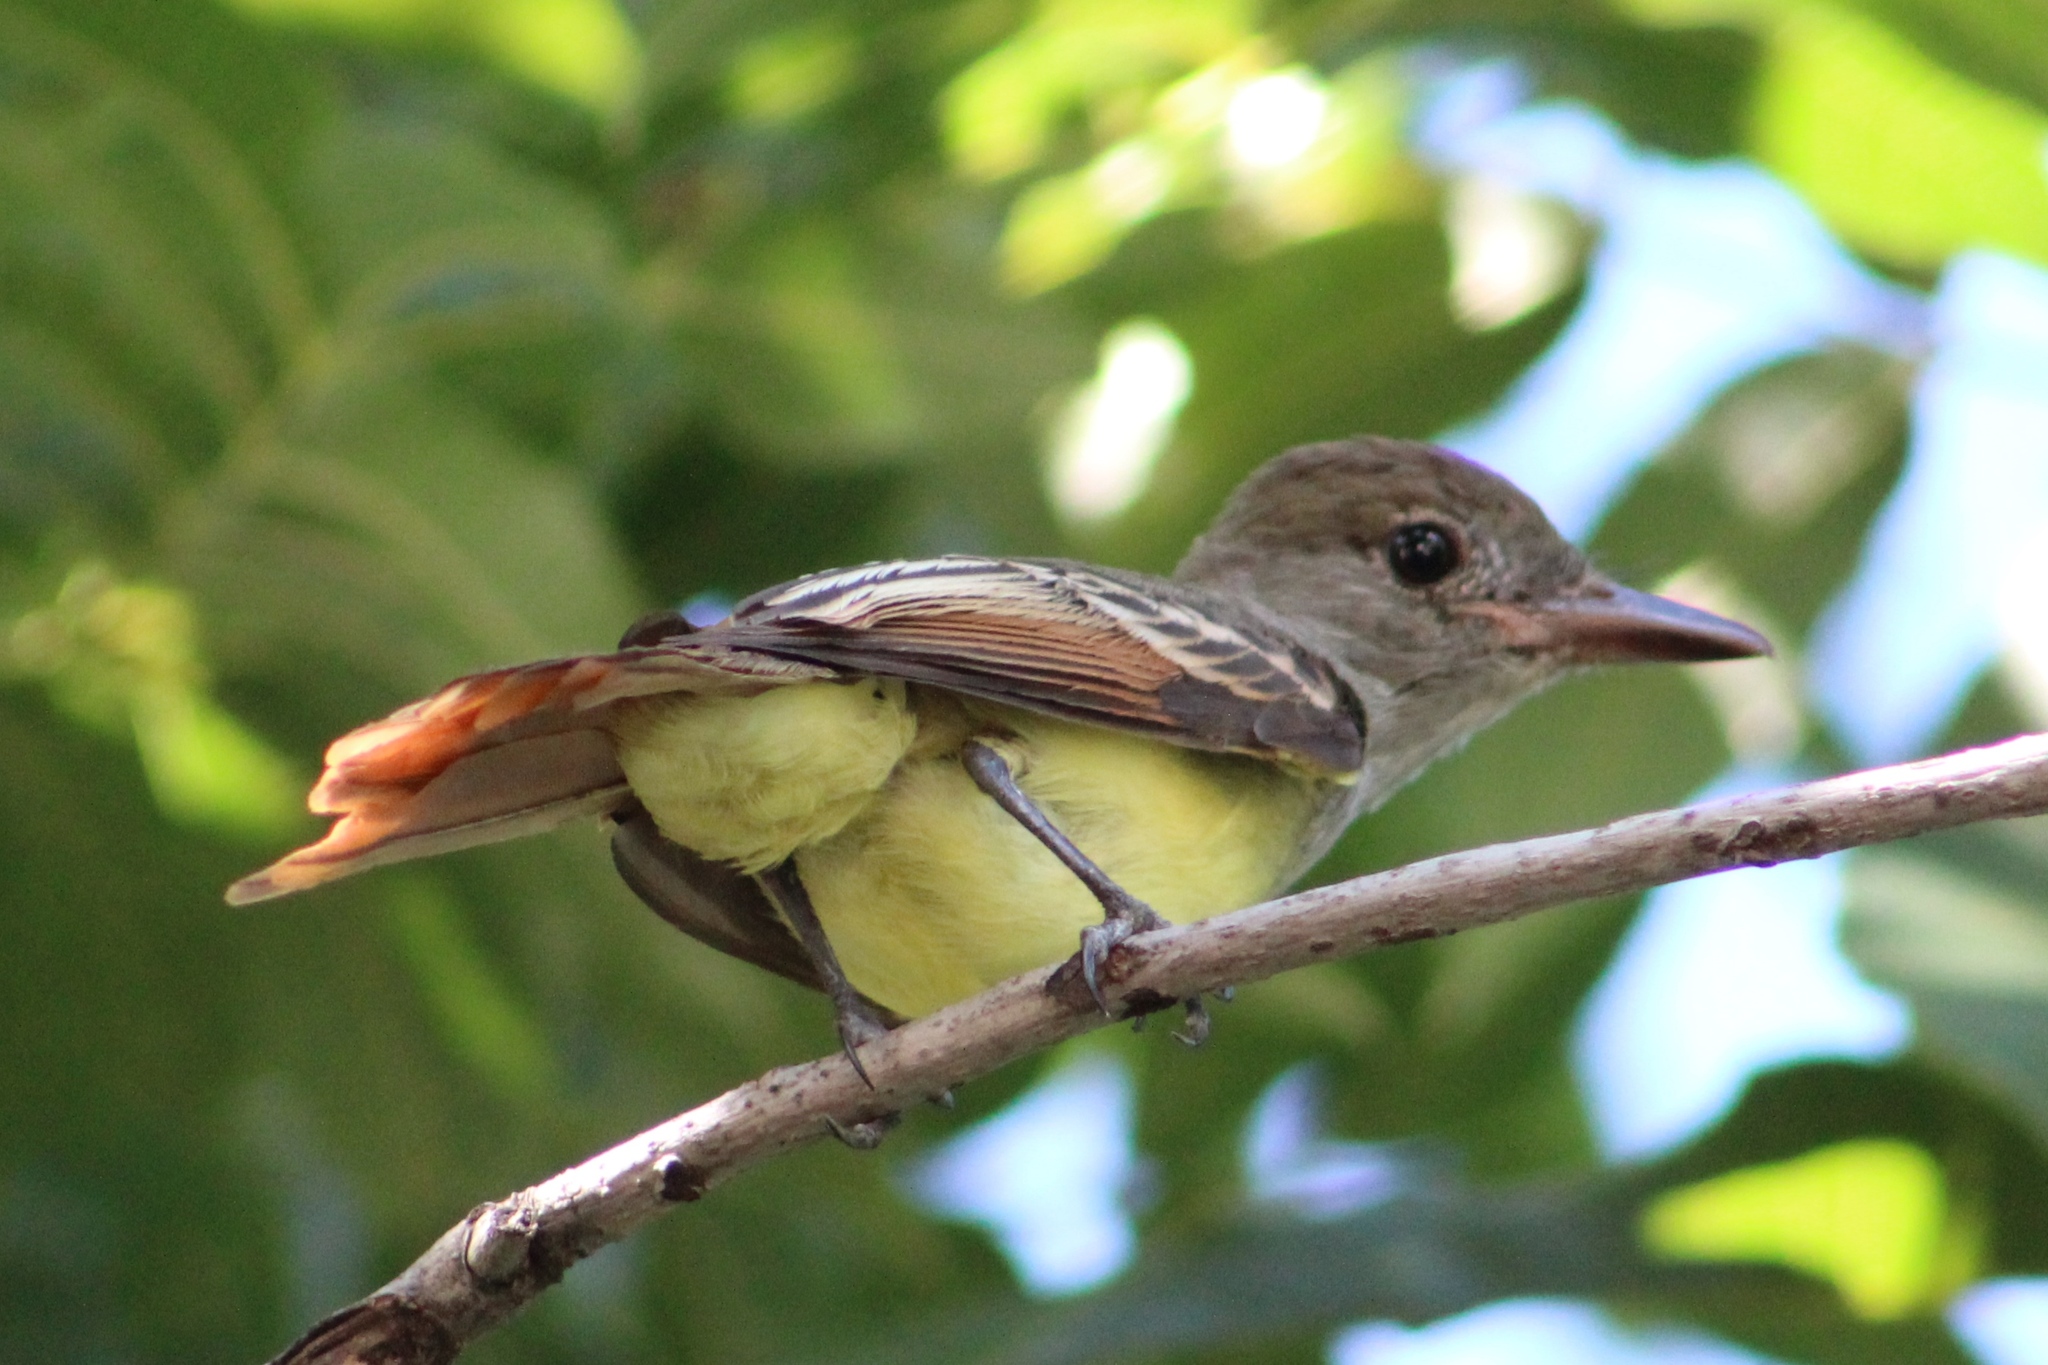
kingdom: Animalia
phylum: Chordata
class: Aves
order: Passeriformes
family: Tyrannidae
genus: Myiarchus
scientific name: Myiarchus crinitus
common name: Great crested flycatcher
